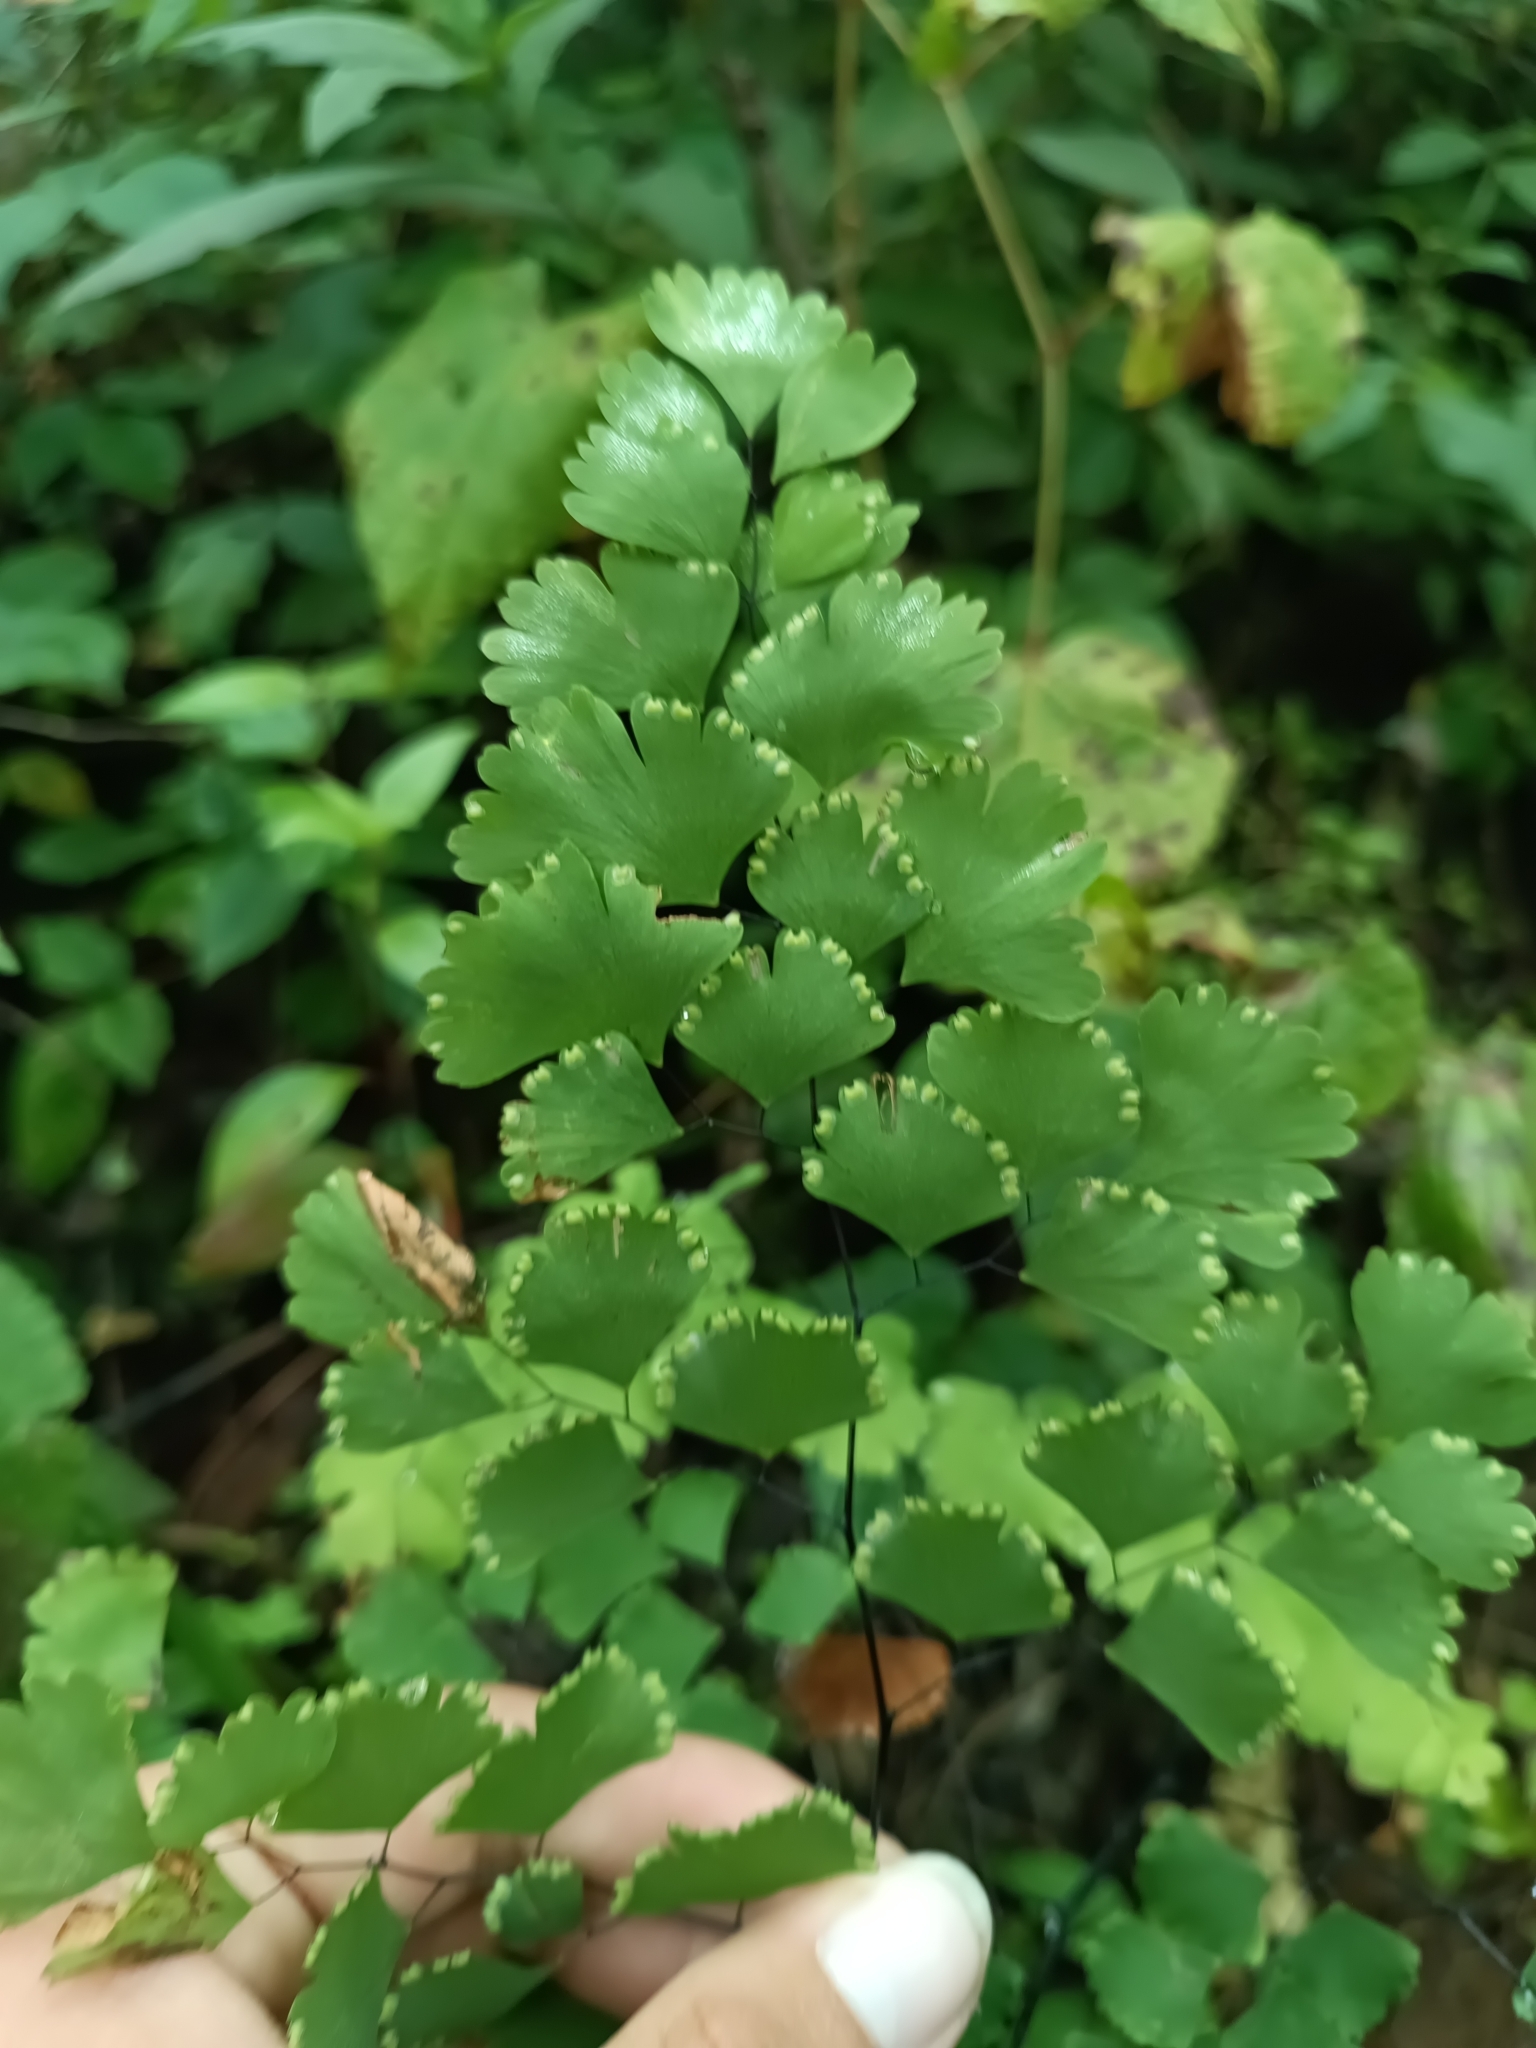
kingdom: Plantae
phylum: Tracheophyta
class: Polypodiopsida
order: Polypodiales
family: Pteridaceae
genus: Adiantum
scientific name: Adiantum andicola
